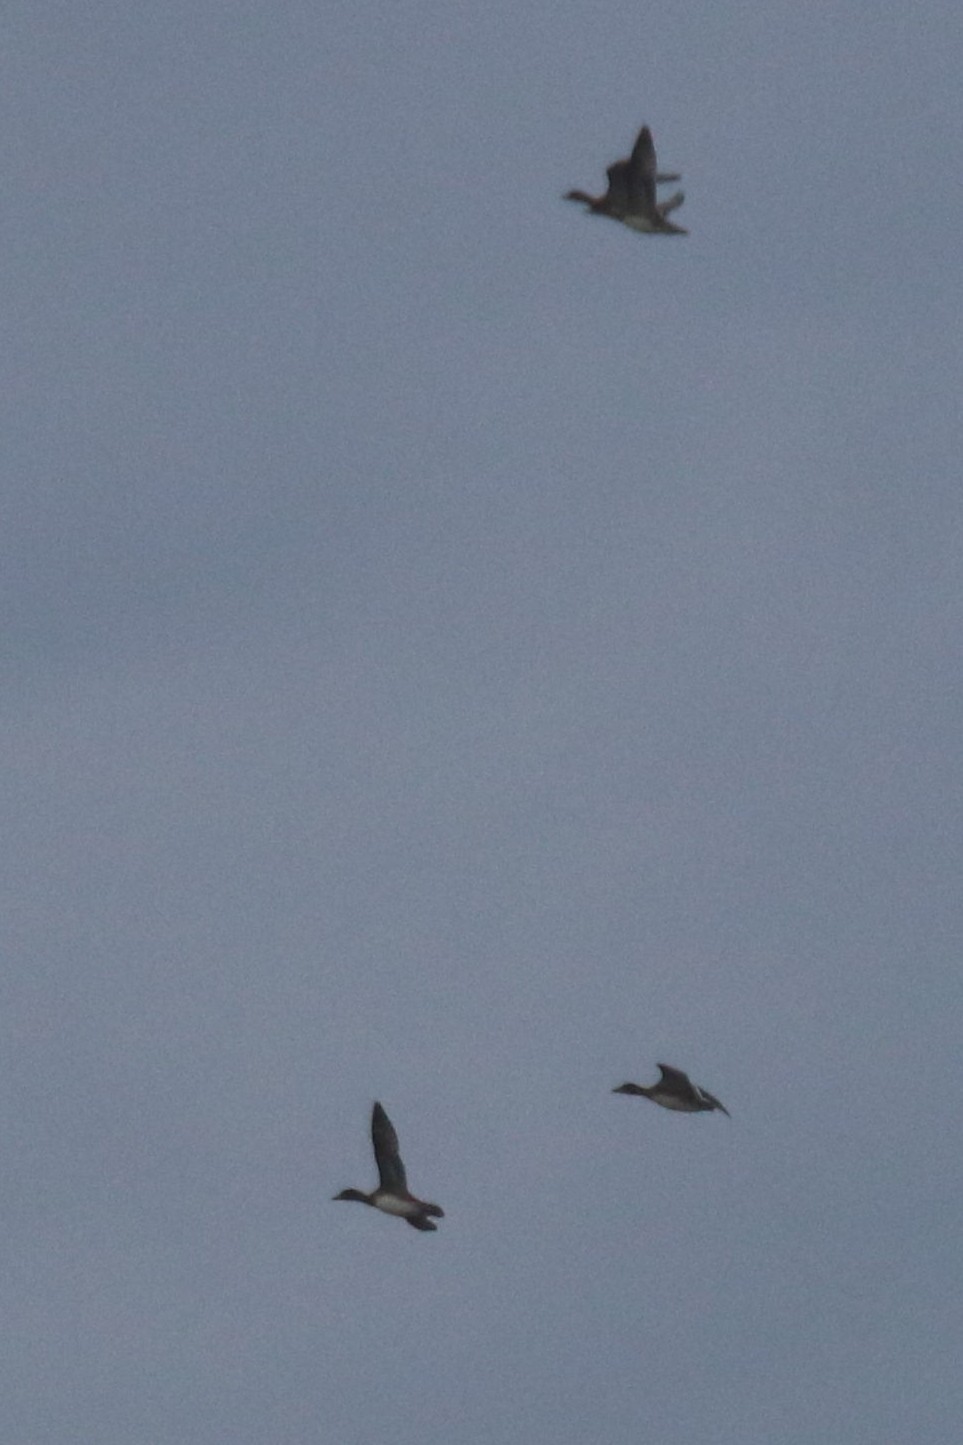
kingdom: Animalia
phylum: Chordata
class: Aves
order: Anseriformes
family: Anatidae
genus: Mareca
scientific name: Mareca penelope
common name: Eurasian wigeon
